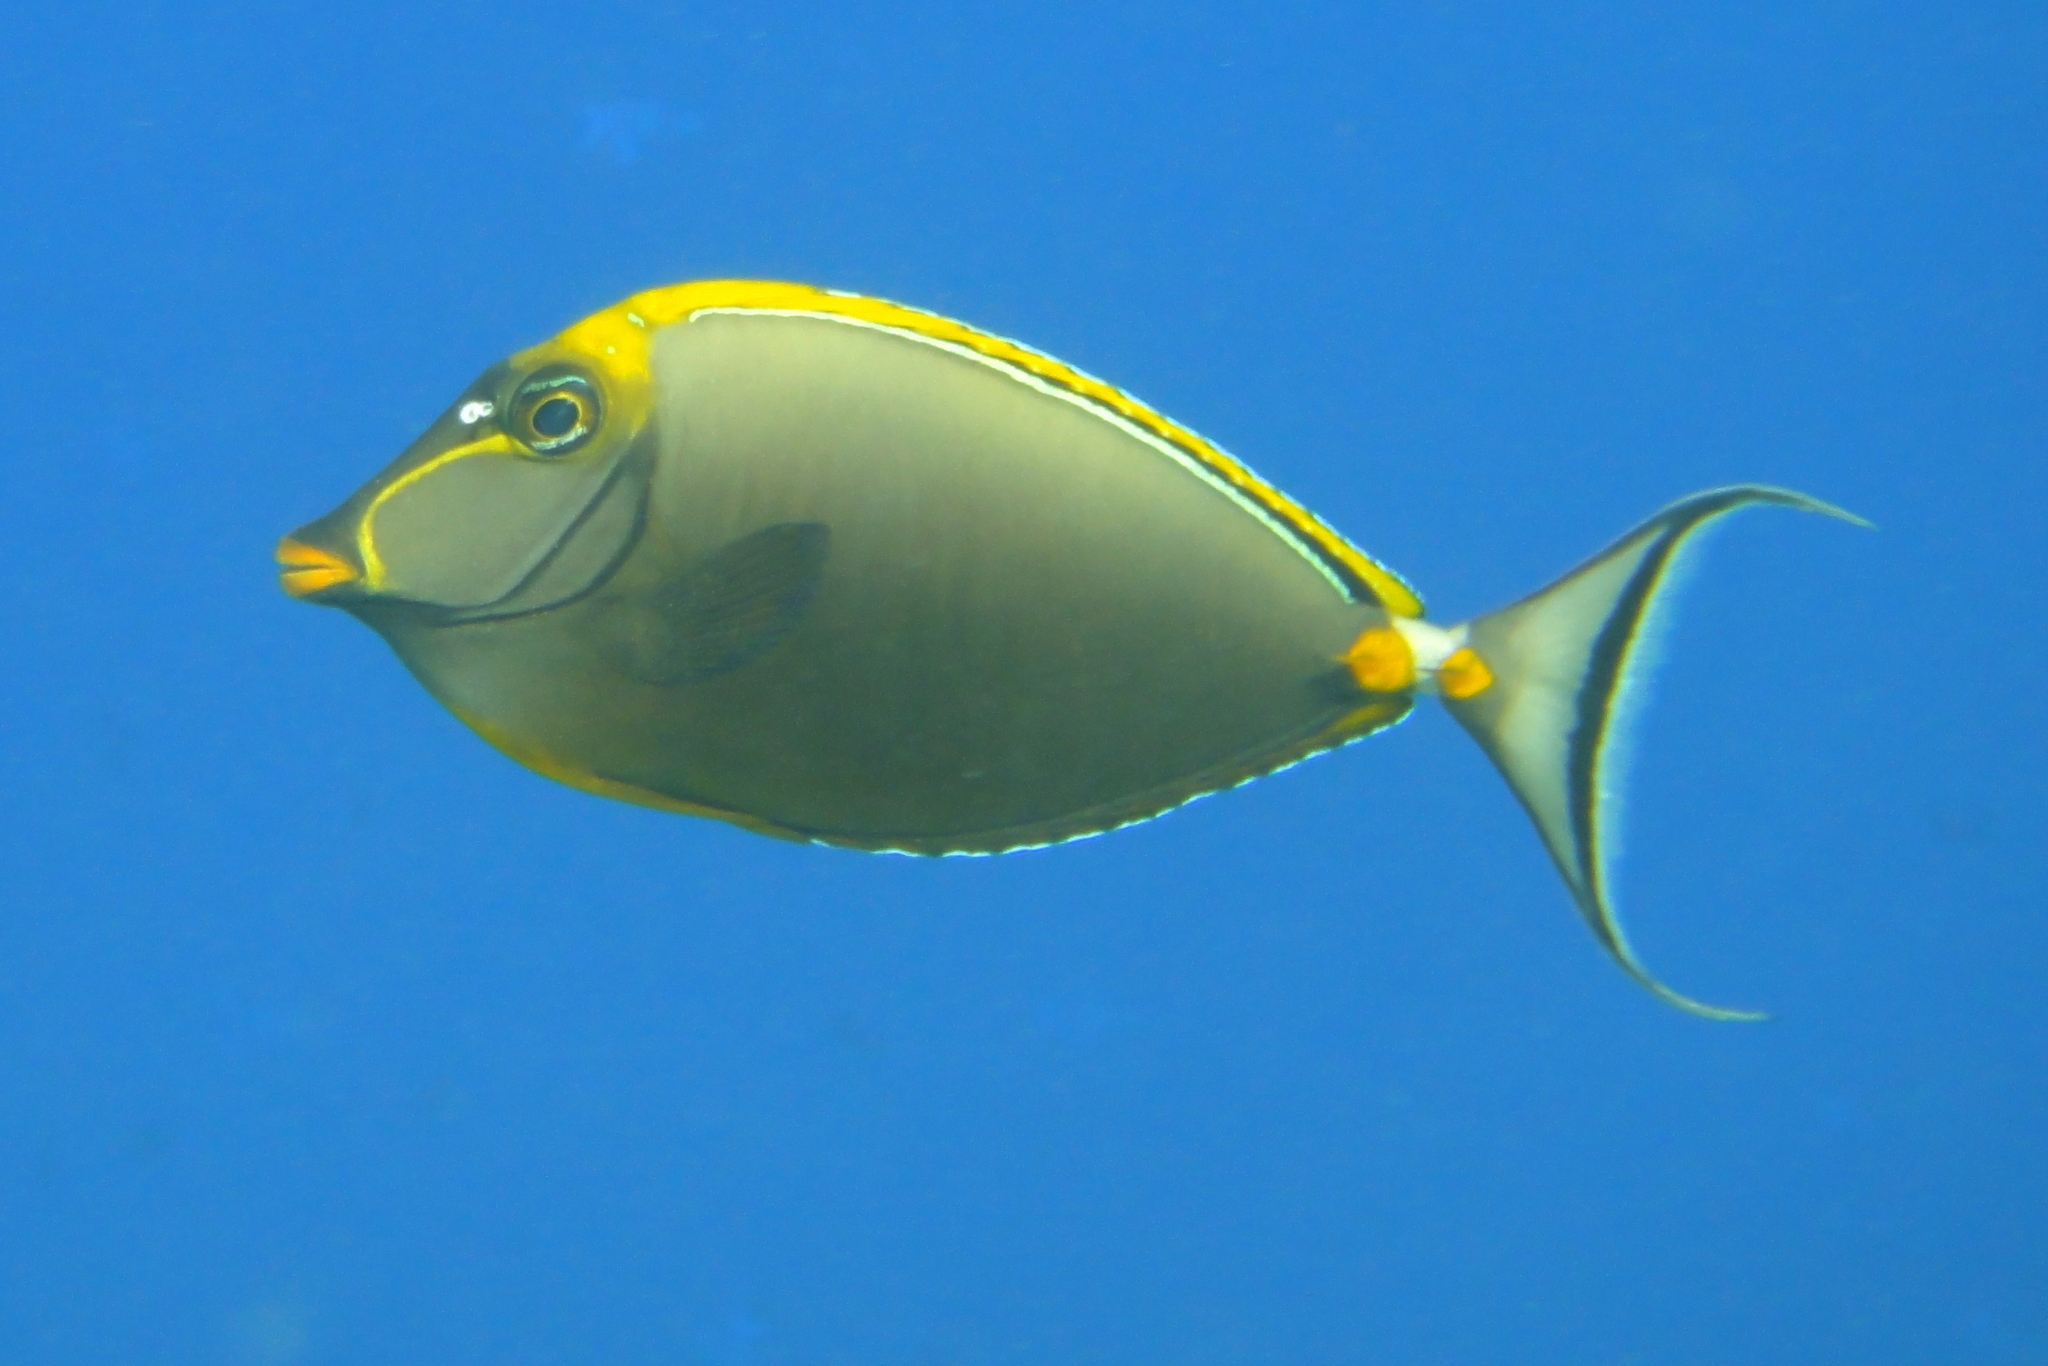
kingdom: Animalia
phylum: Chordata
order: Perciformes
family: Acanthuridae
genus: Naso
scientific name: Naso elegans
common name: Orangespine unicornfish
